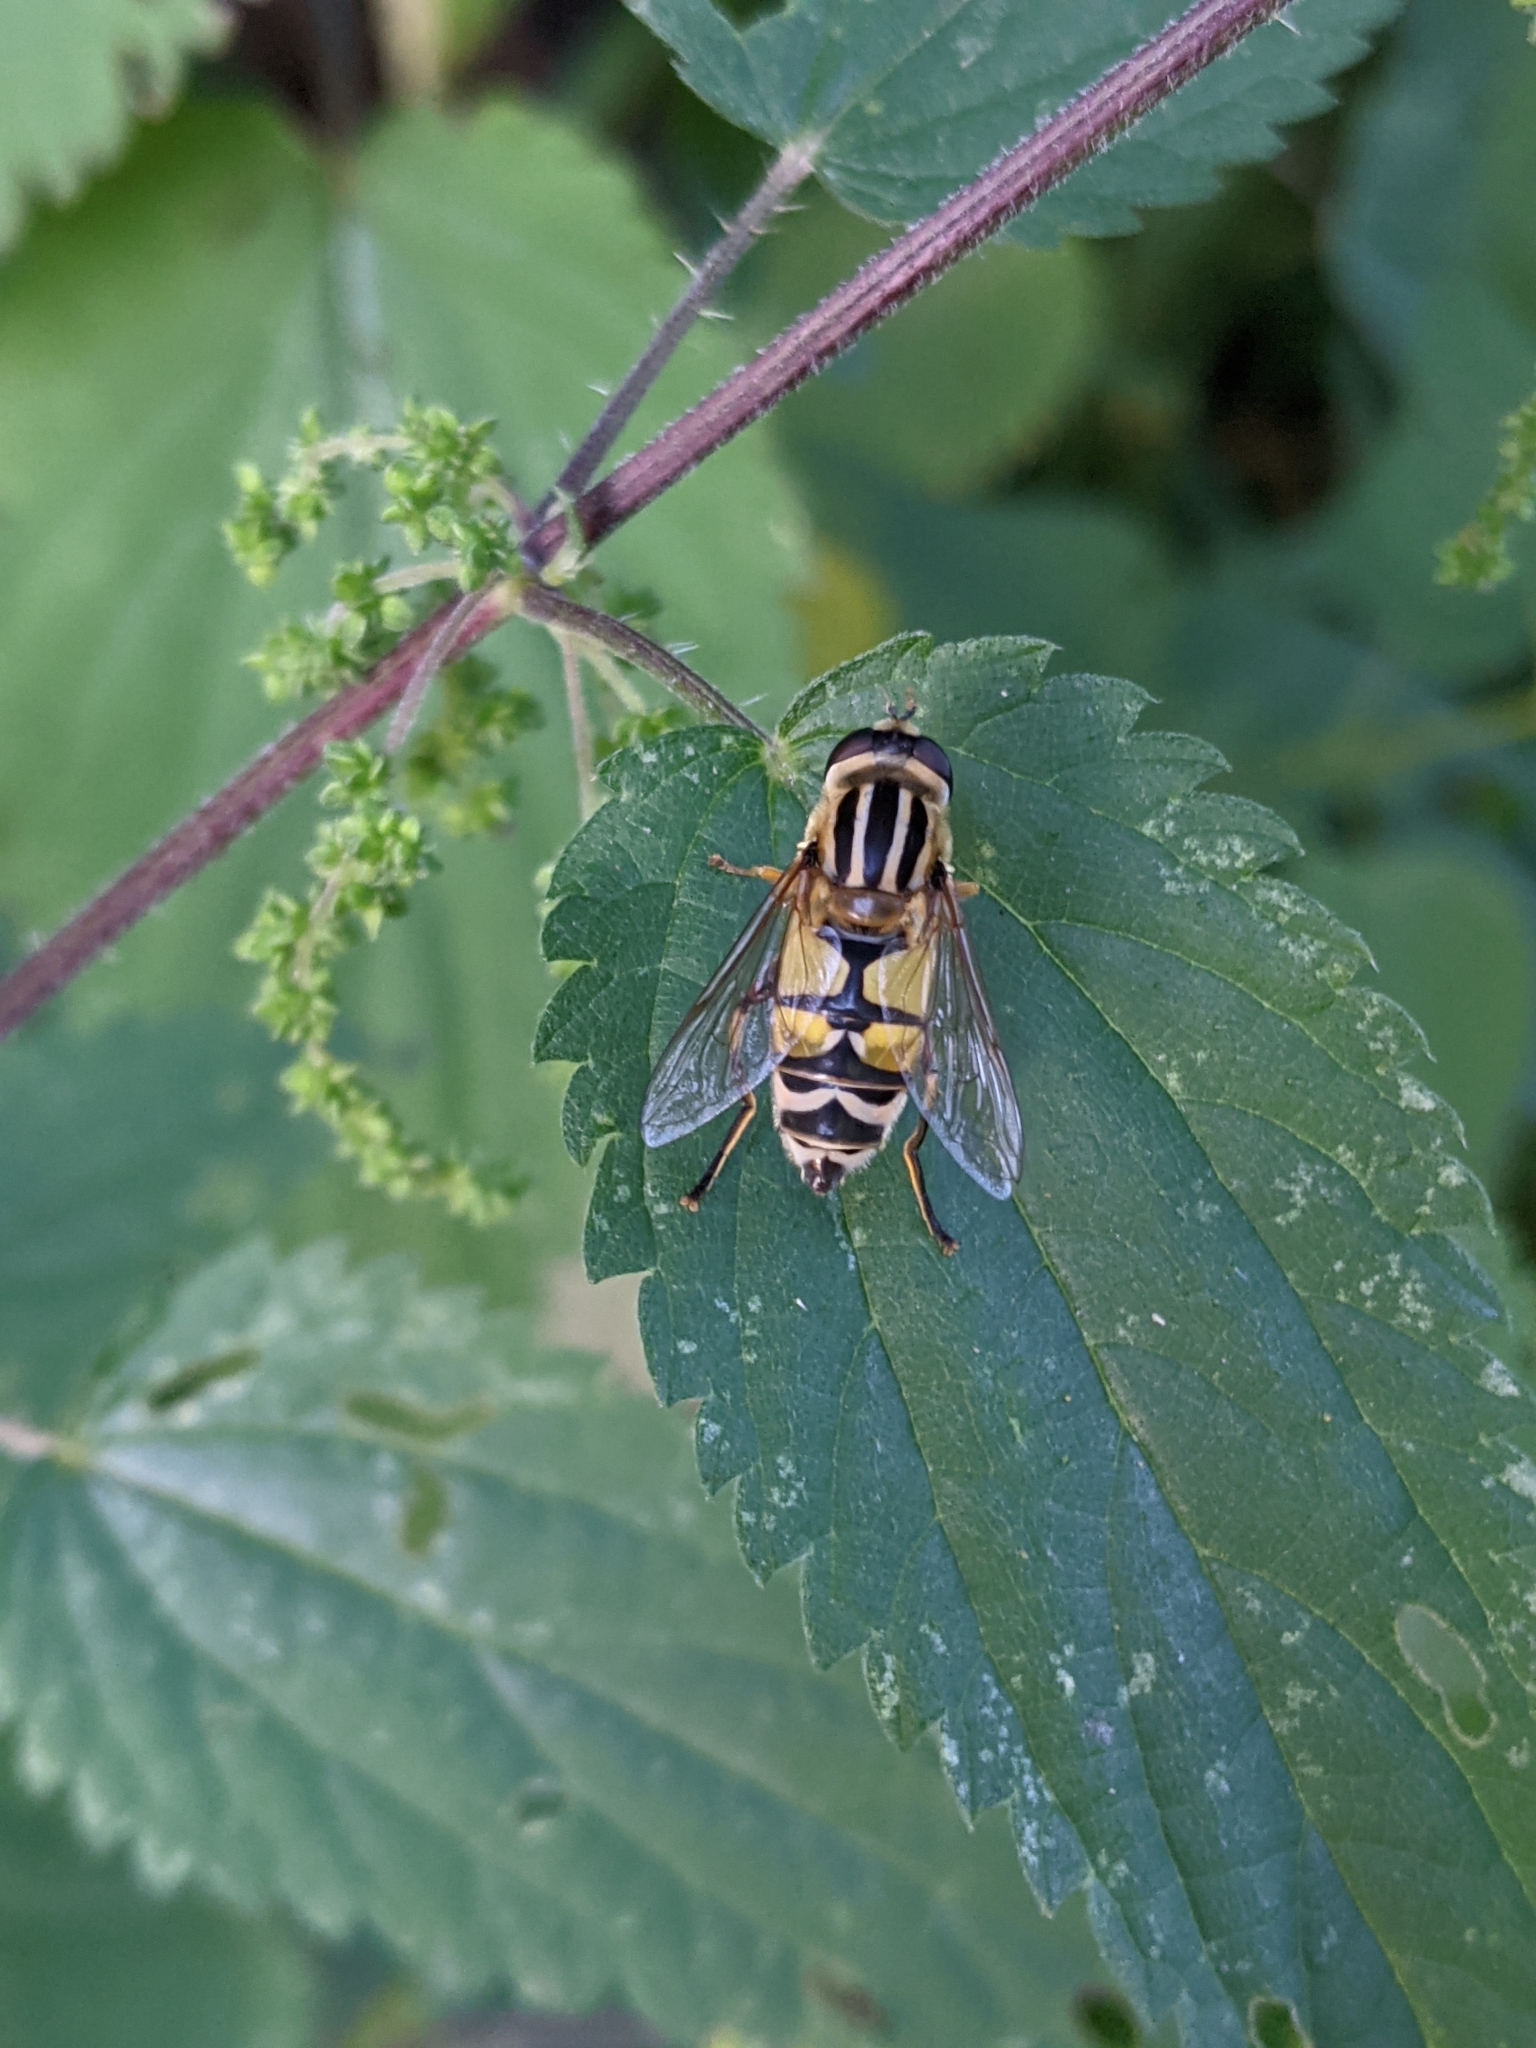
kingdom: Animalia
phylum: Arthropoda
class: Insecta
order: Diptera
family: Syrphidae
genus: Helophilus
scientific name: Helophilus trivittatus
